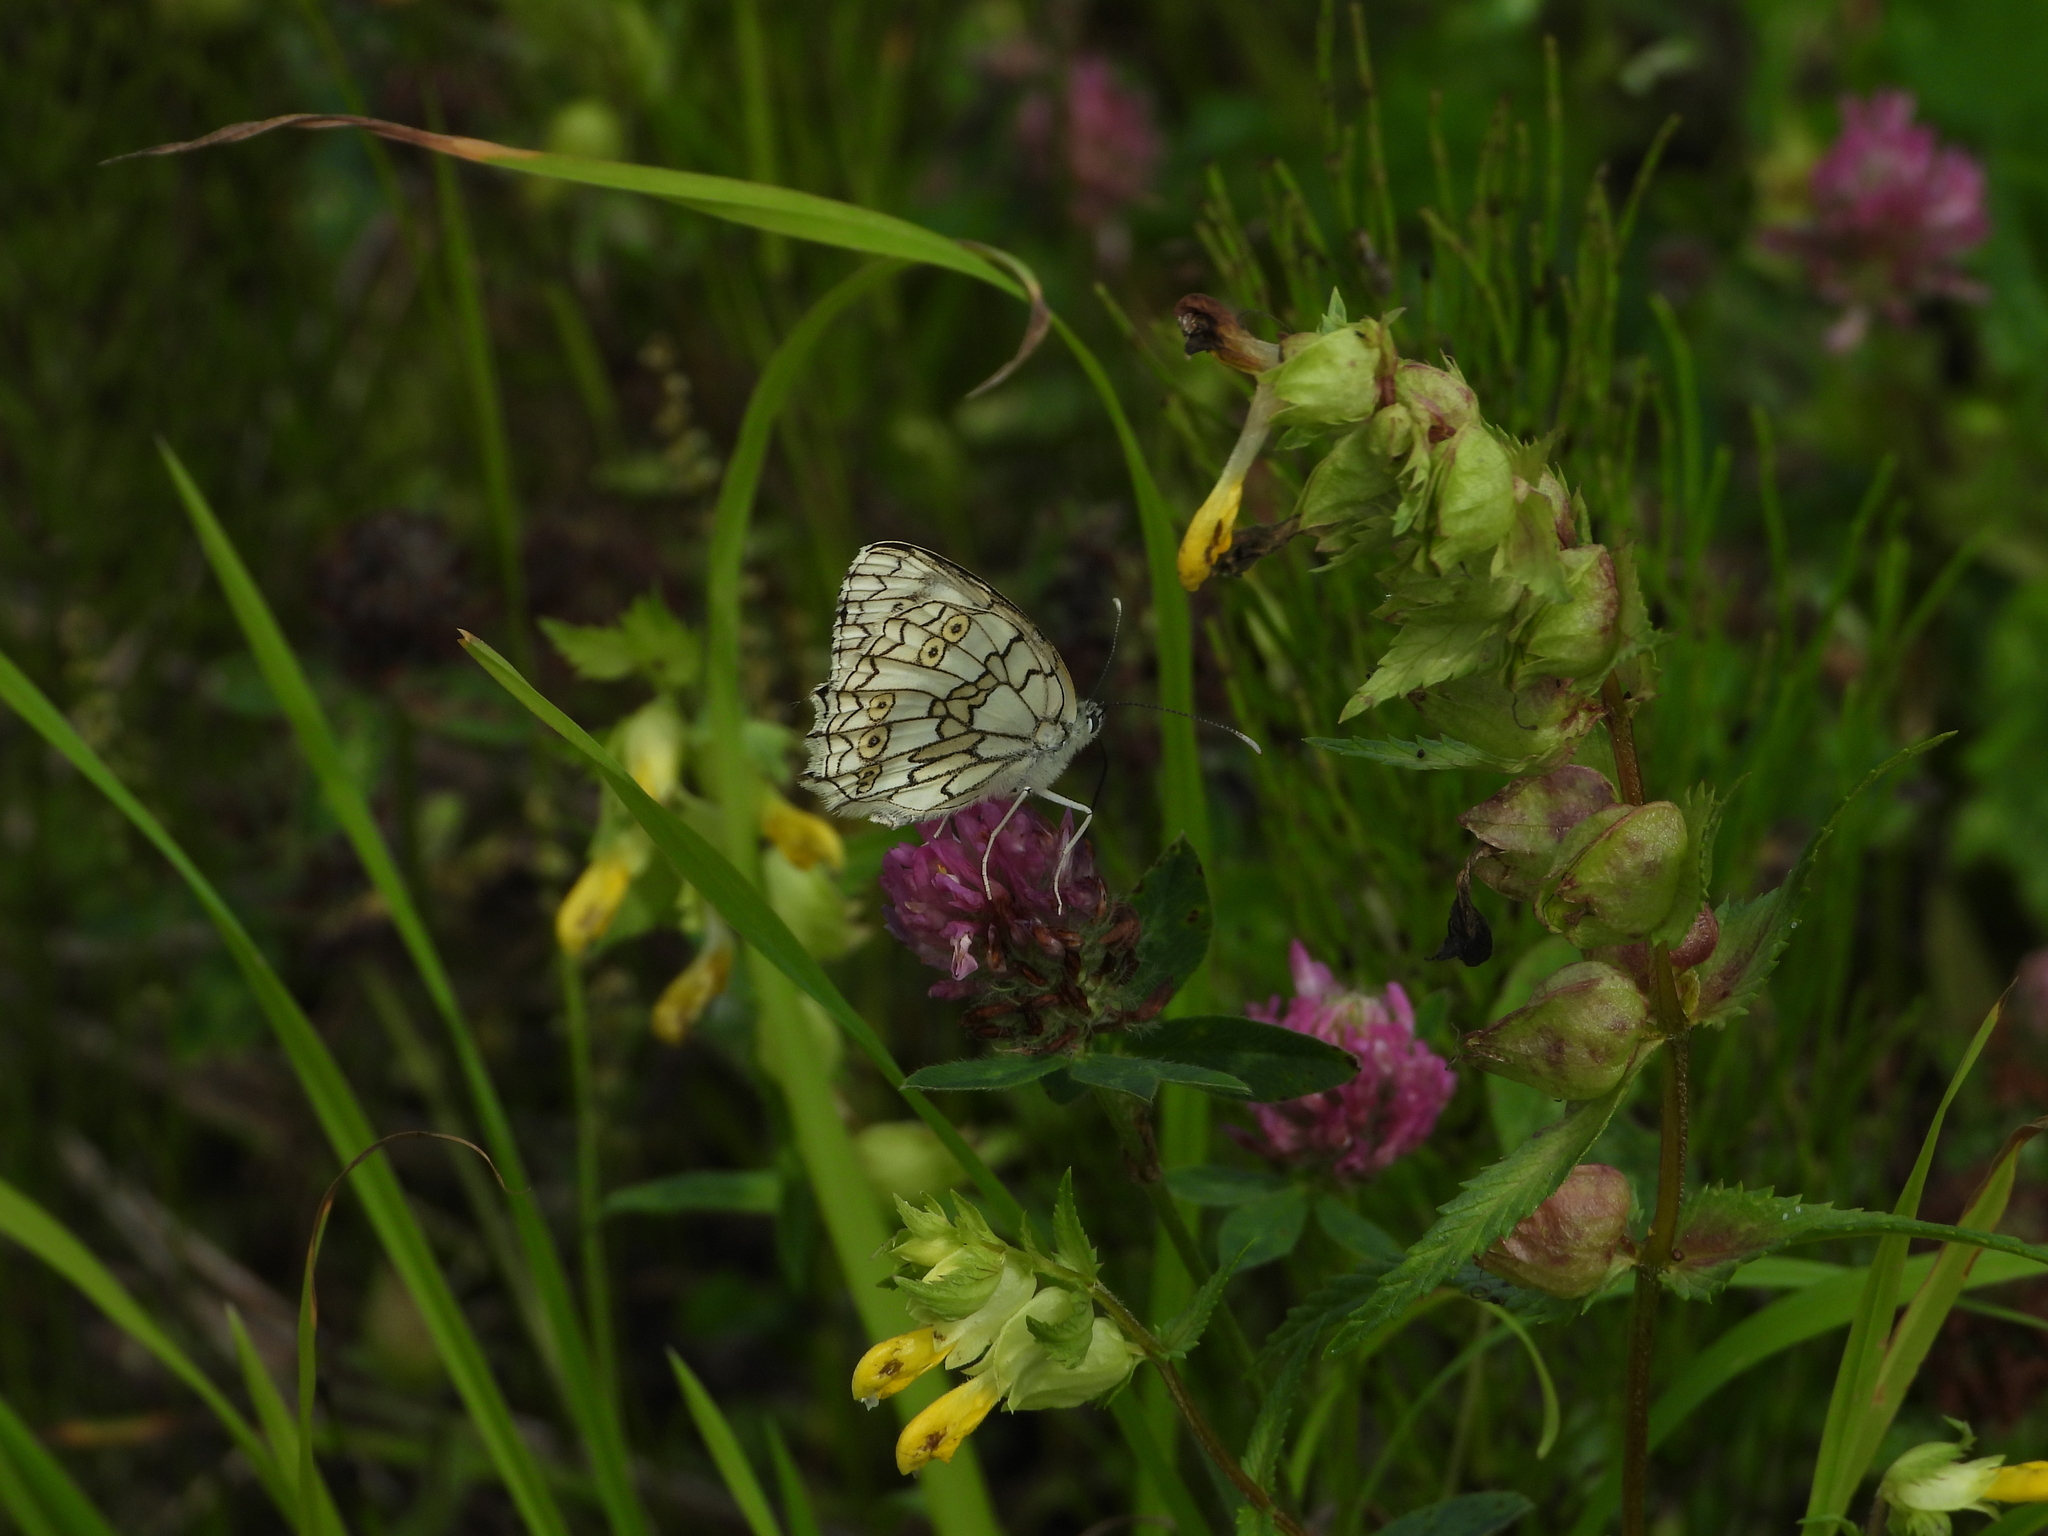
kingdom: Animalia
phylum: Arthropoda
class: Insecta
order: Lepidoptera
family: Nymphalidae
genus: Melanargia
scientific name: Melanargia japygia
